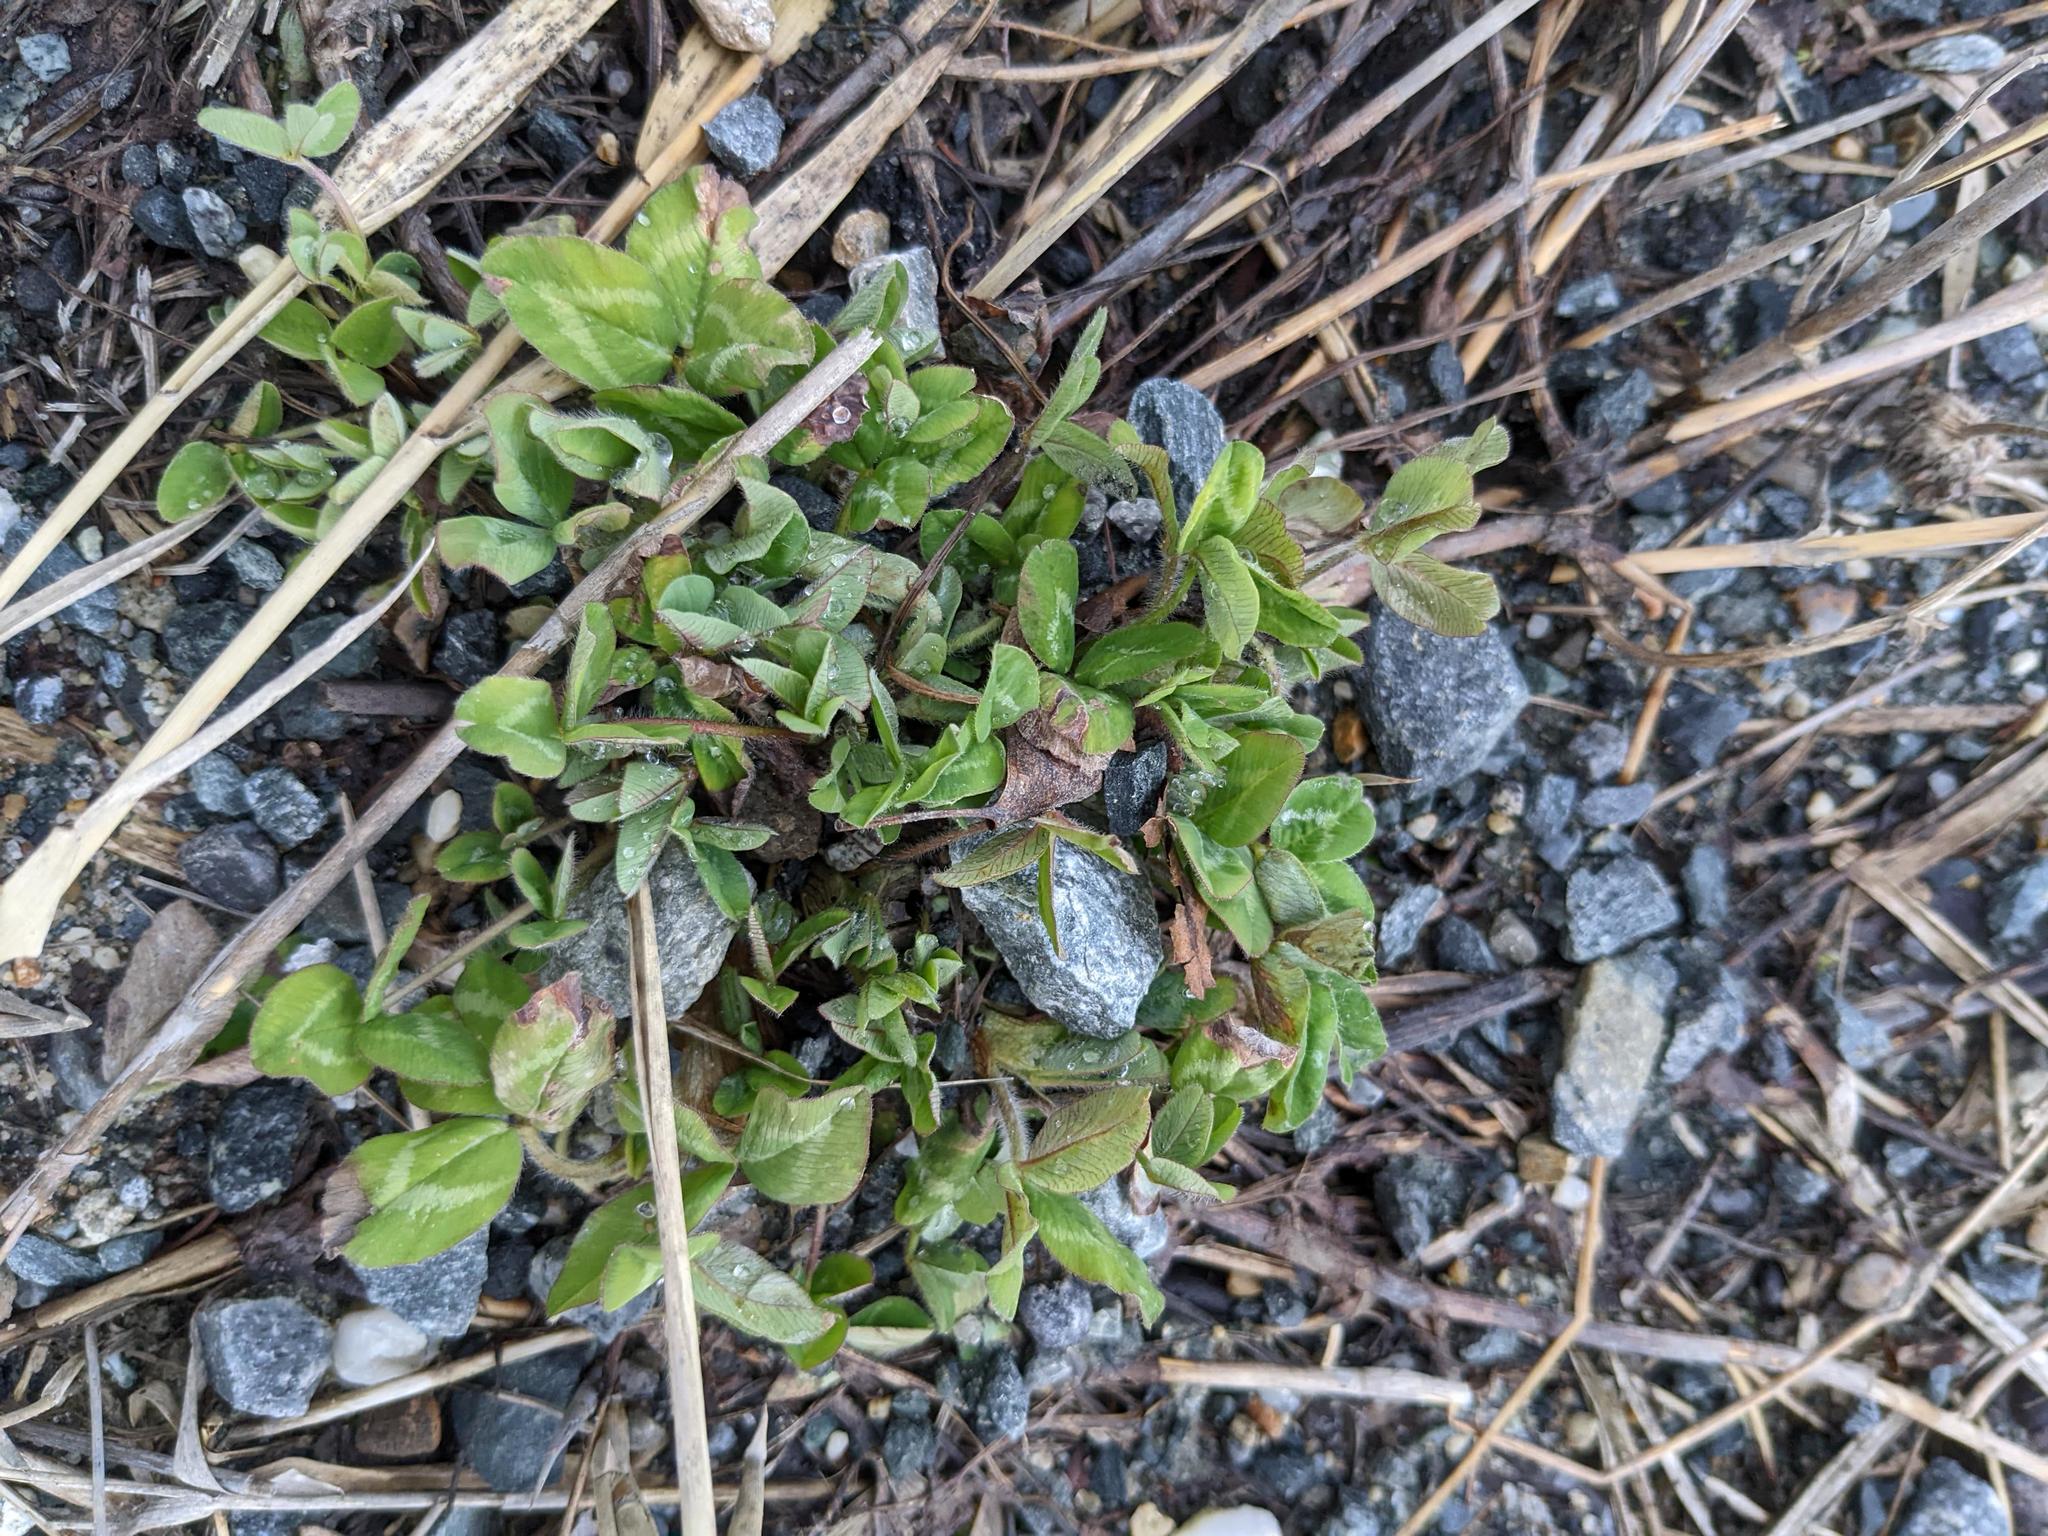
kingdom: Plantae
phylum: Tracheophyta
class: Magnoliopsida
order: Fabales
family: Fabaceae
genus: Trifolium
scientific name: Trifolium pratense
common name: Red clover
